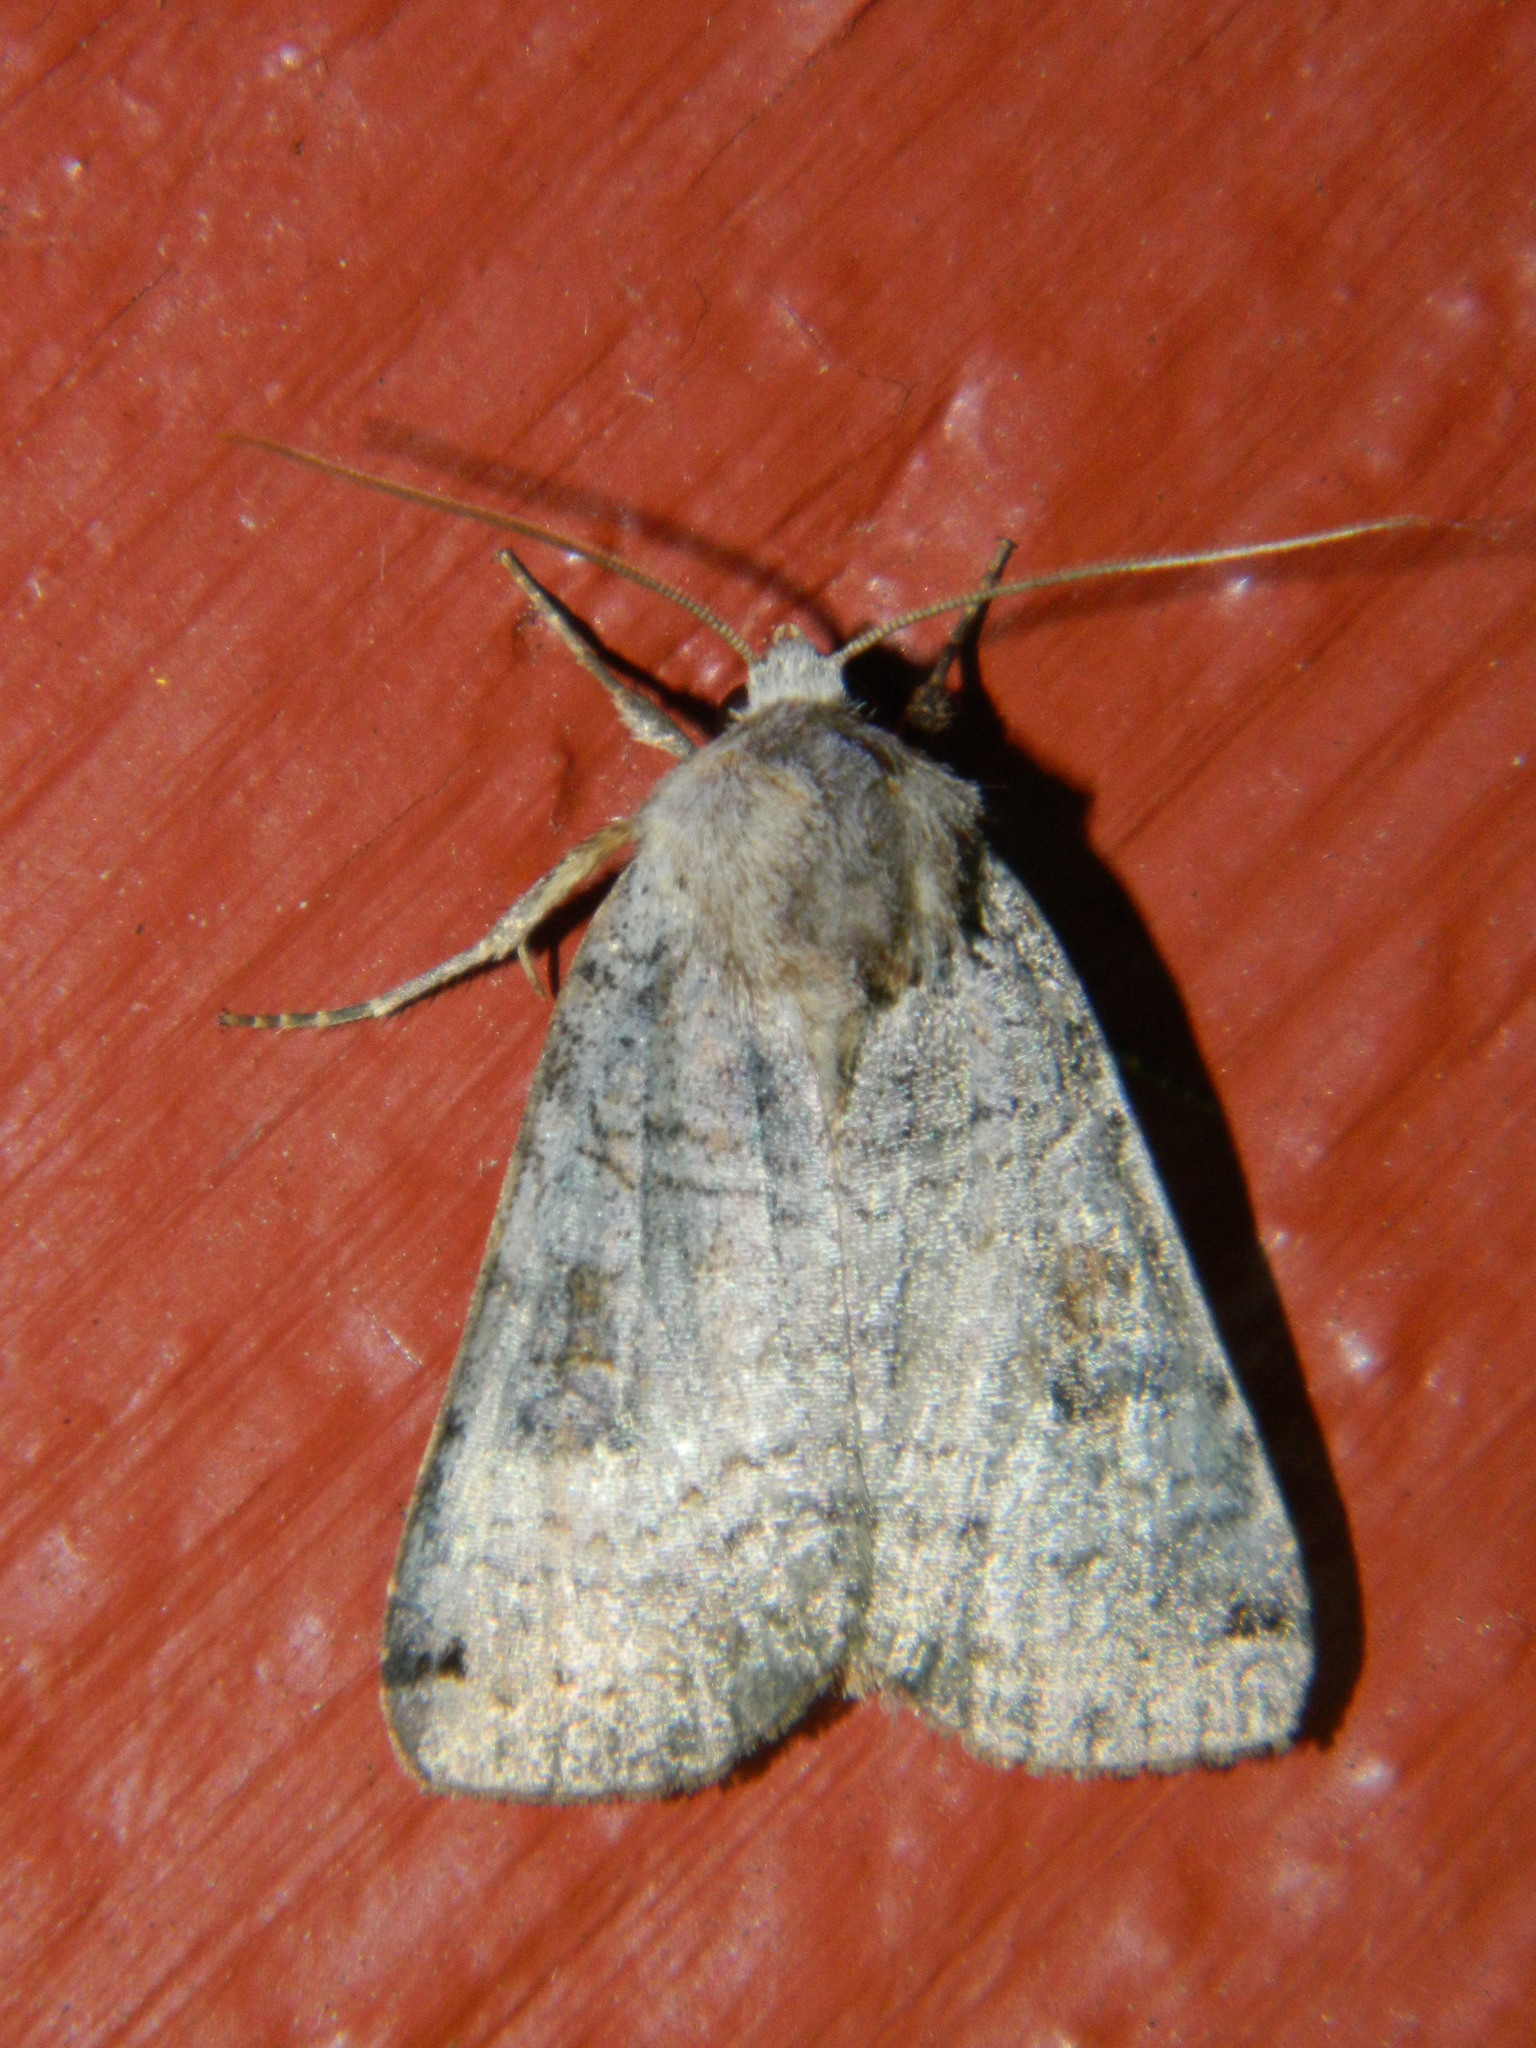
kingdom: Animalia
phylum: Arthropoda
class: Insecta
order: Lepidoptera
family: Noctuidae
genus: Xestia
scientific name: Xestia smithii
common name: Smith's dart
